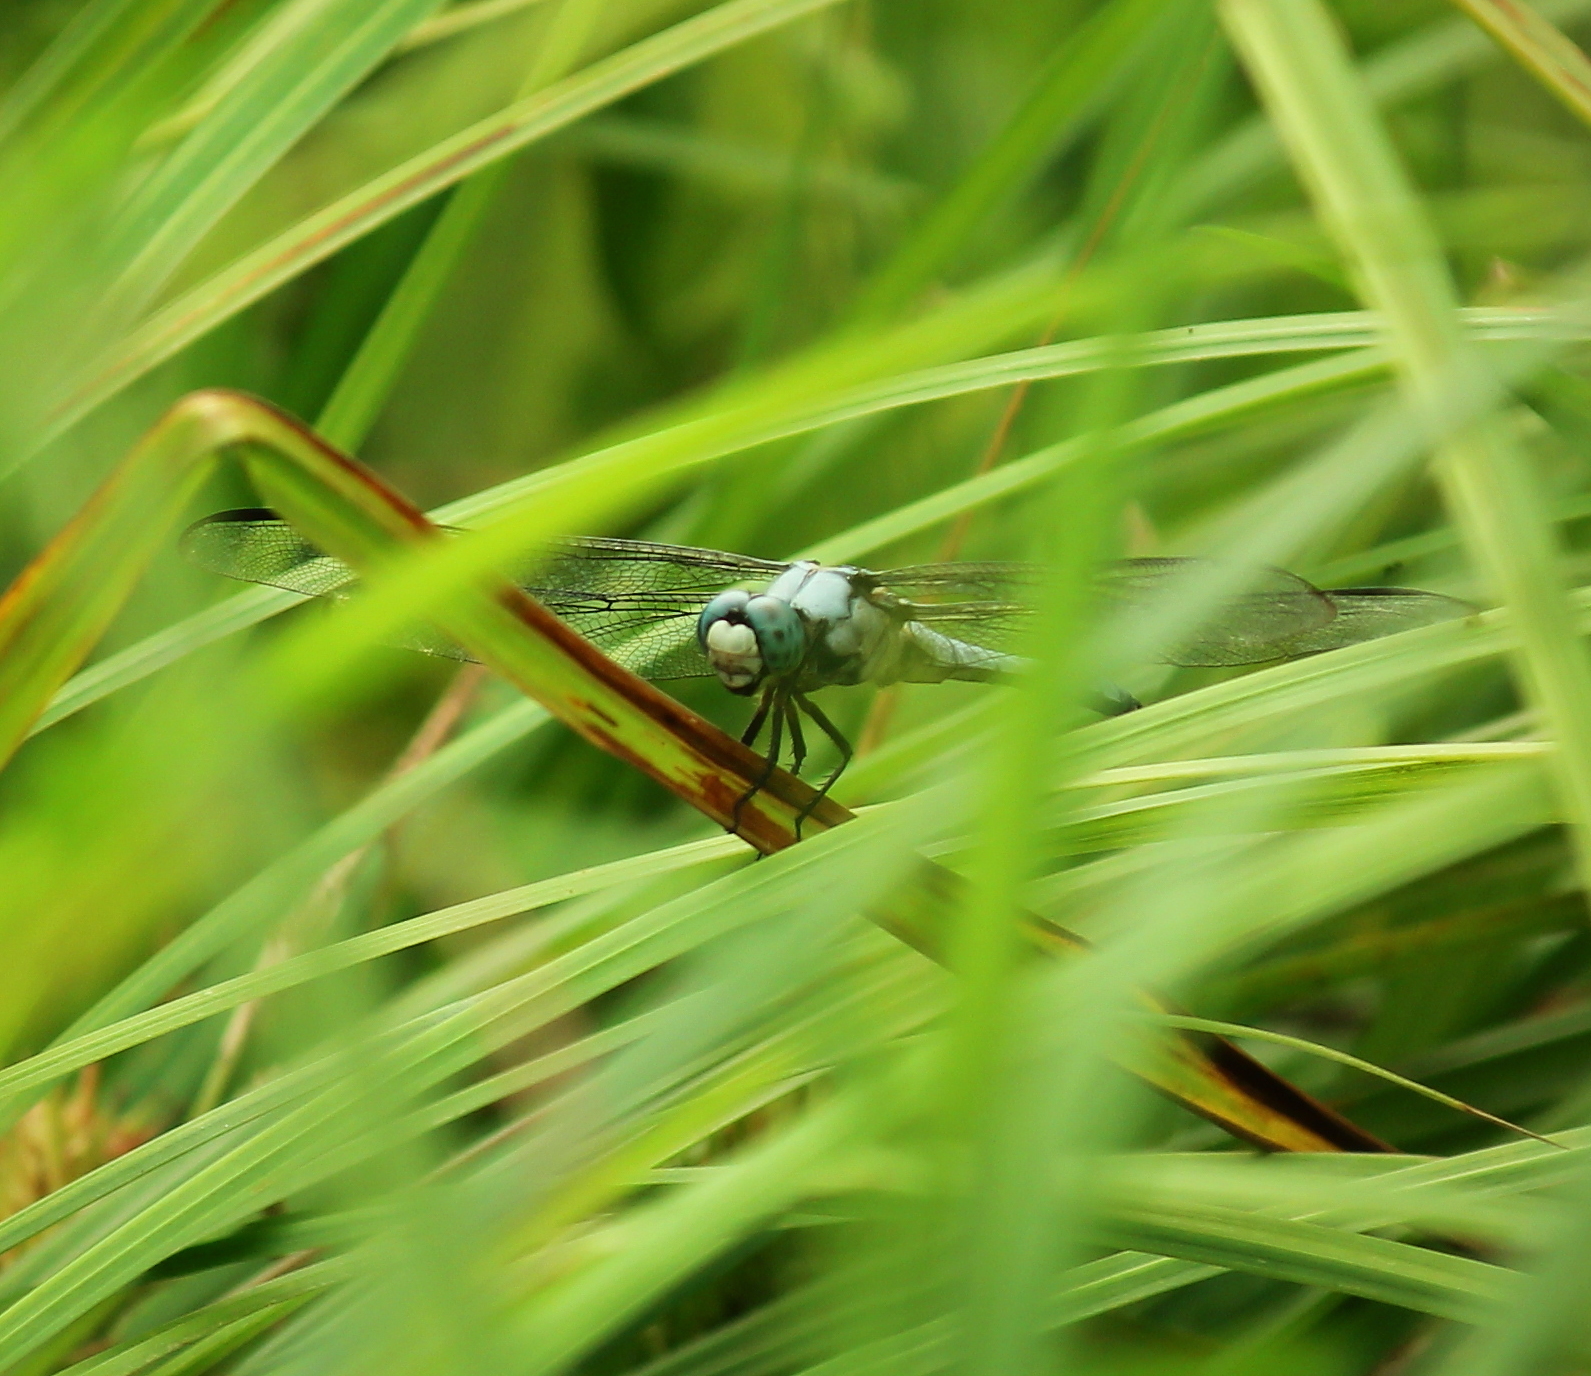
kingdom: Animalia
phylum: Arthropoda
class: Insecta
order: Odonata
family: Libellulidae
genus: Libellula
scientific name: Libellula vibrans
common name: Great blue skimmer
